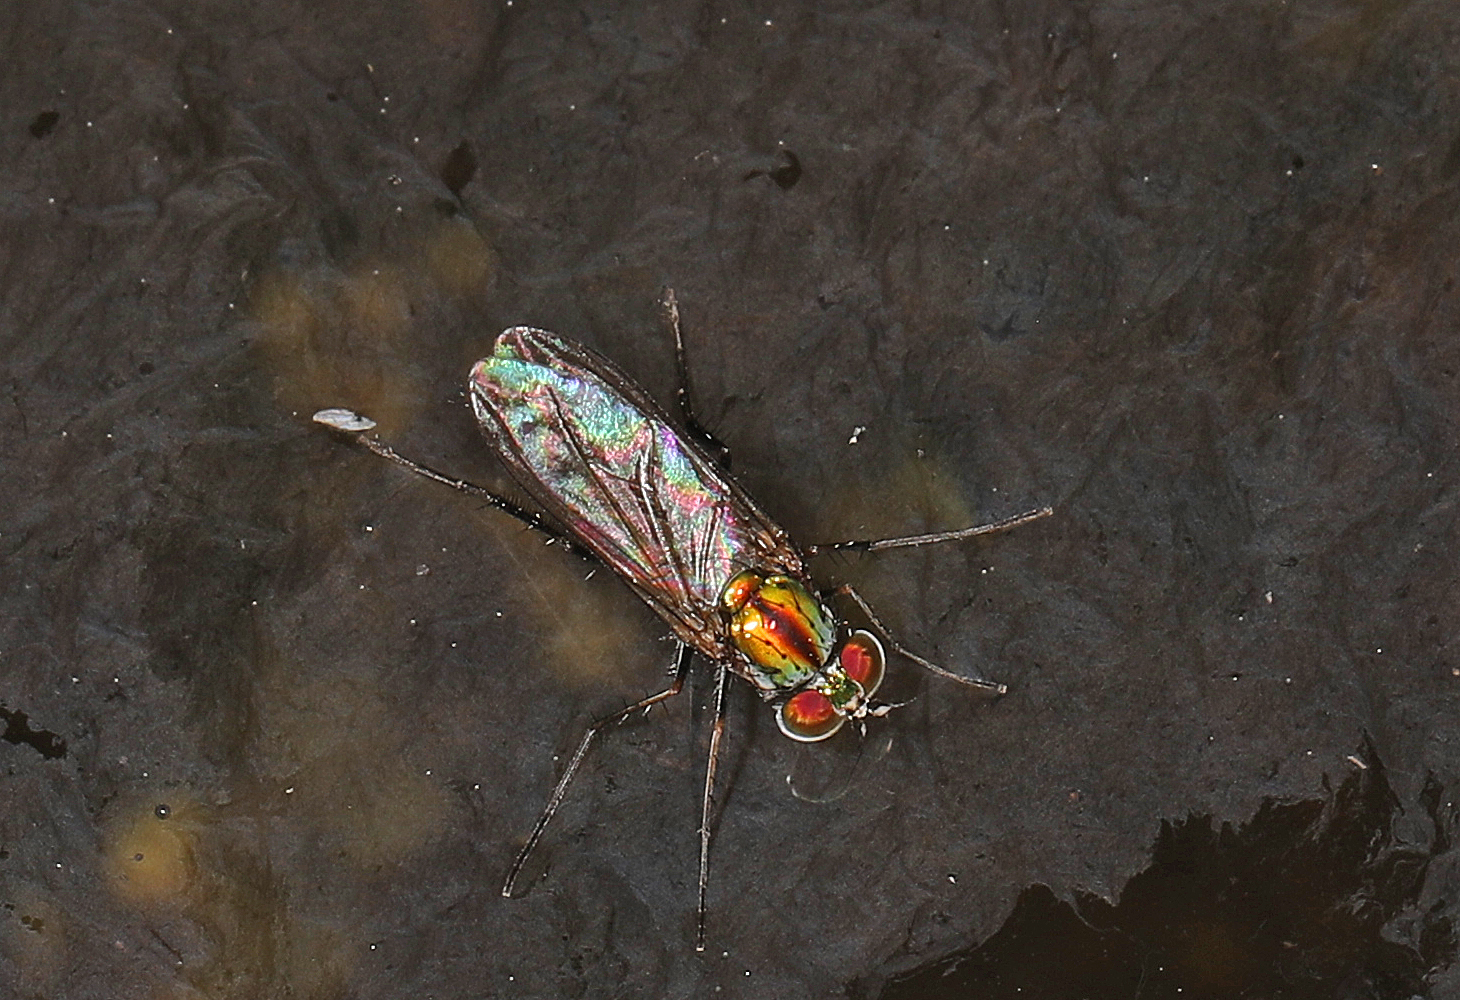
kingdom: Animalia
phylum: Arthropoda
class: Insecta
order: Diptera
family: Dolichopodidae
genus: Plagioneurus
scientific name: Plagioneurus univittatus
